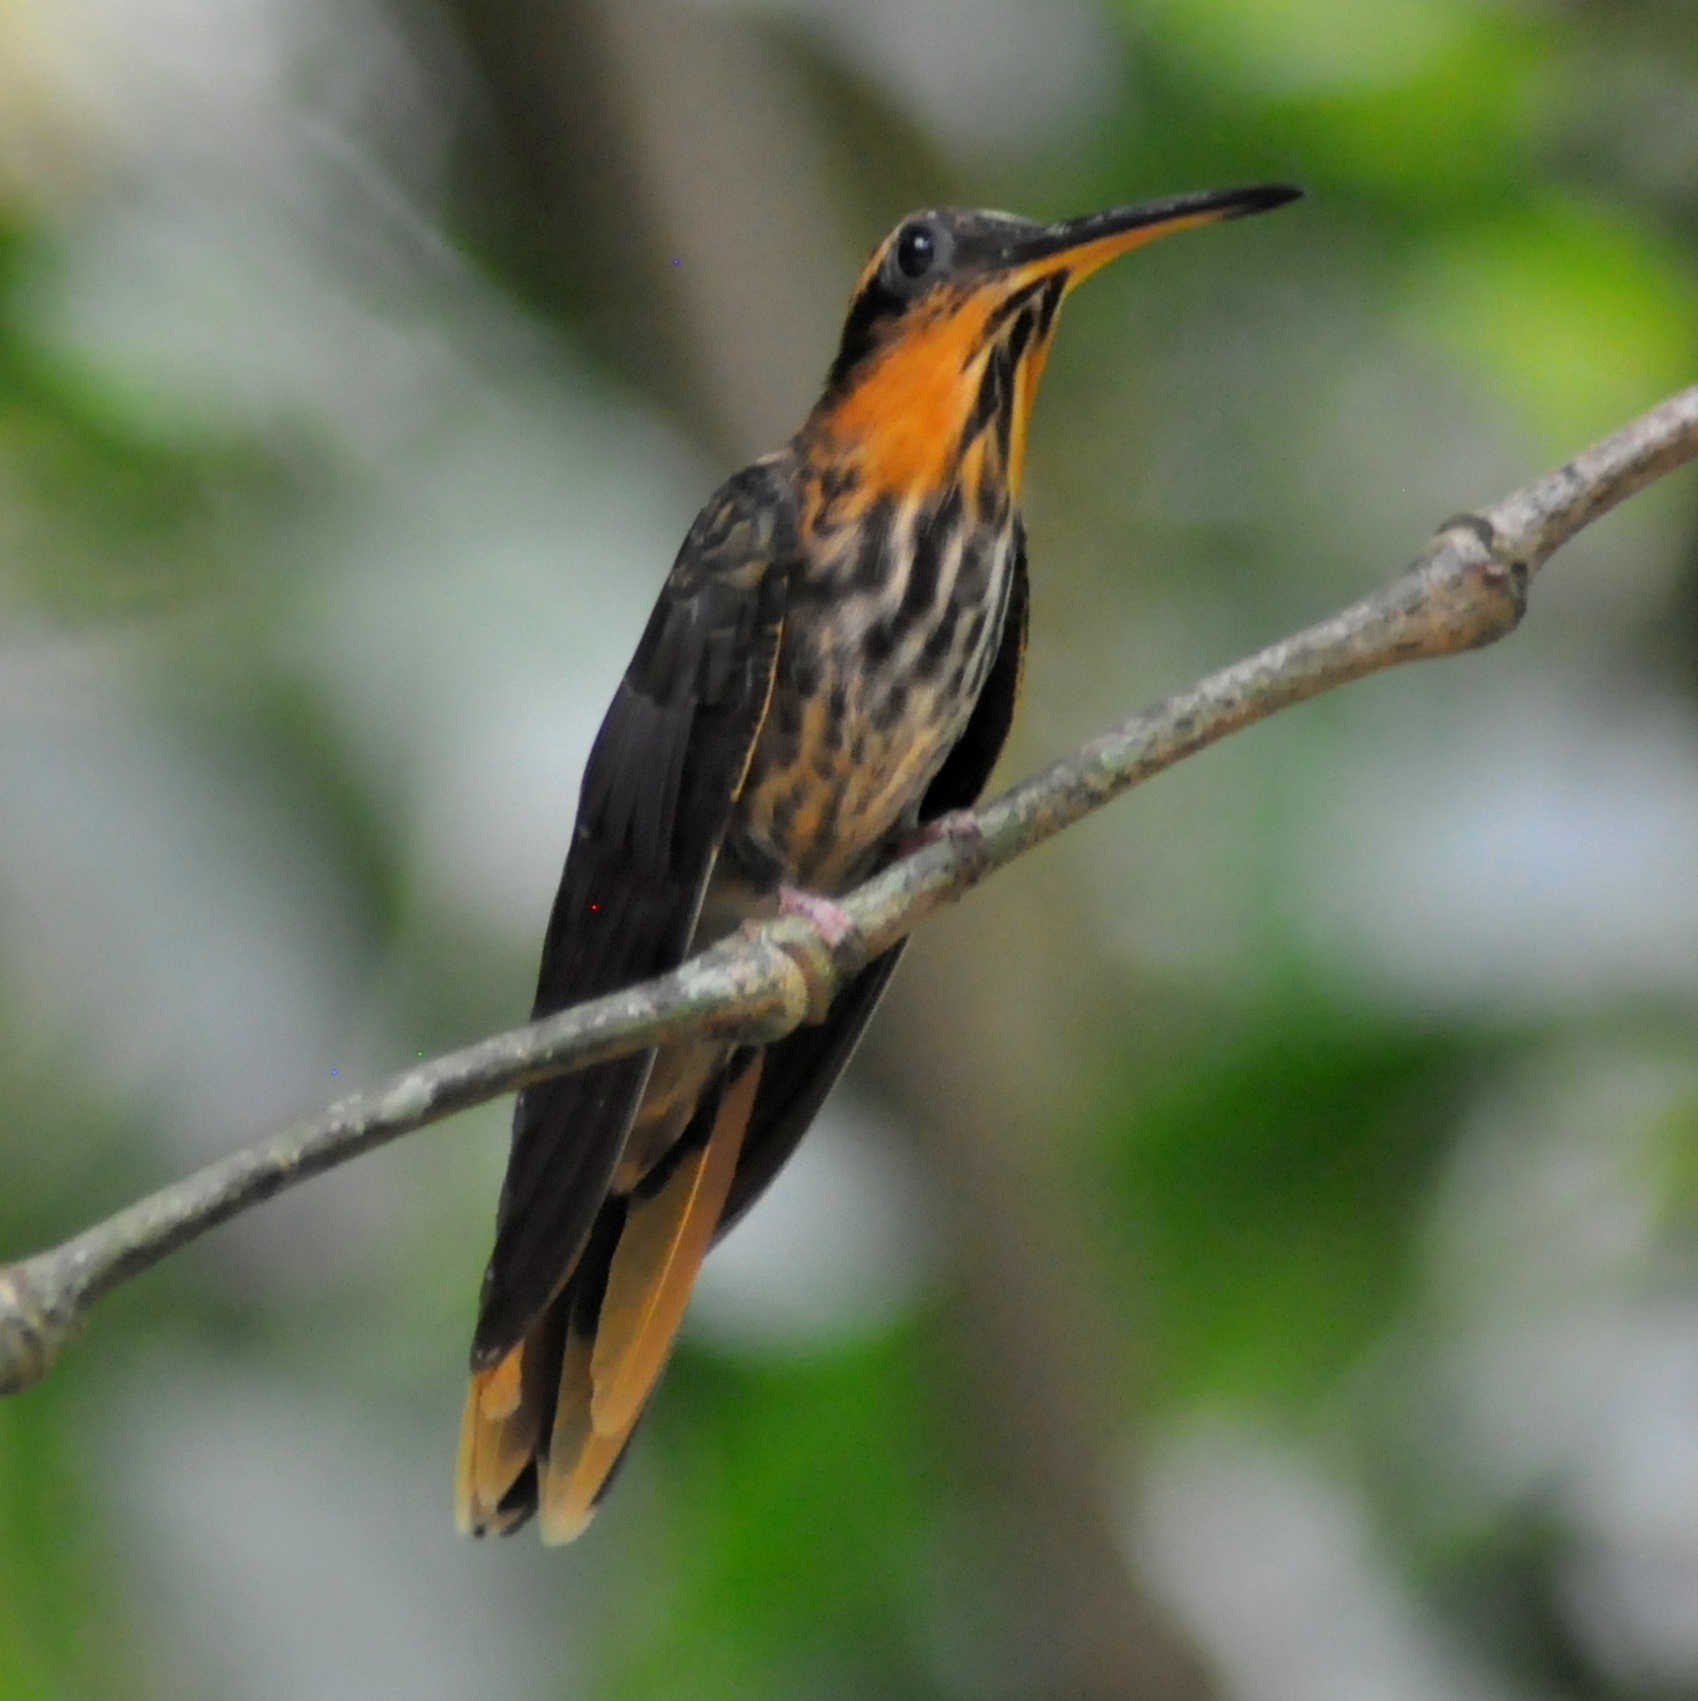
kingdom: Animalia
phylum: Chordata
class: Aves
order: Apodiformes
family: Trochilidae
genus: Ramphodon
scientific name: Ramphodon naevius
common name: Saw-billed hermit
